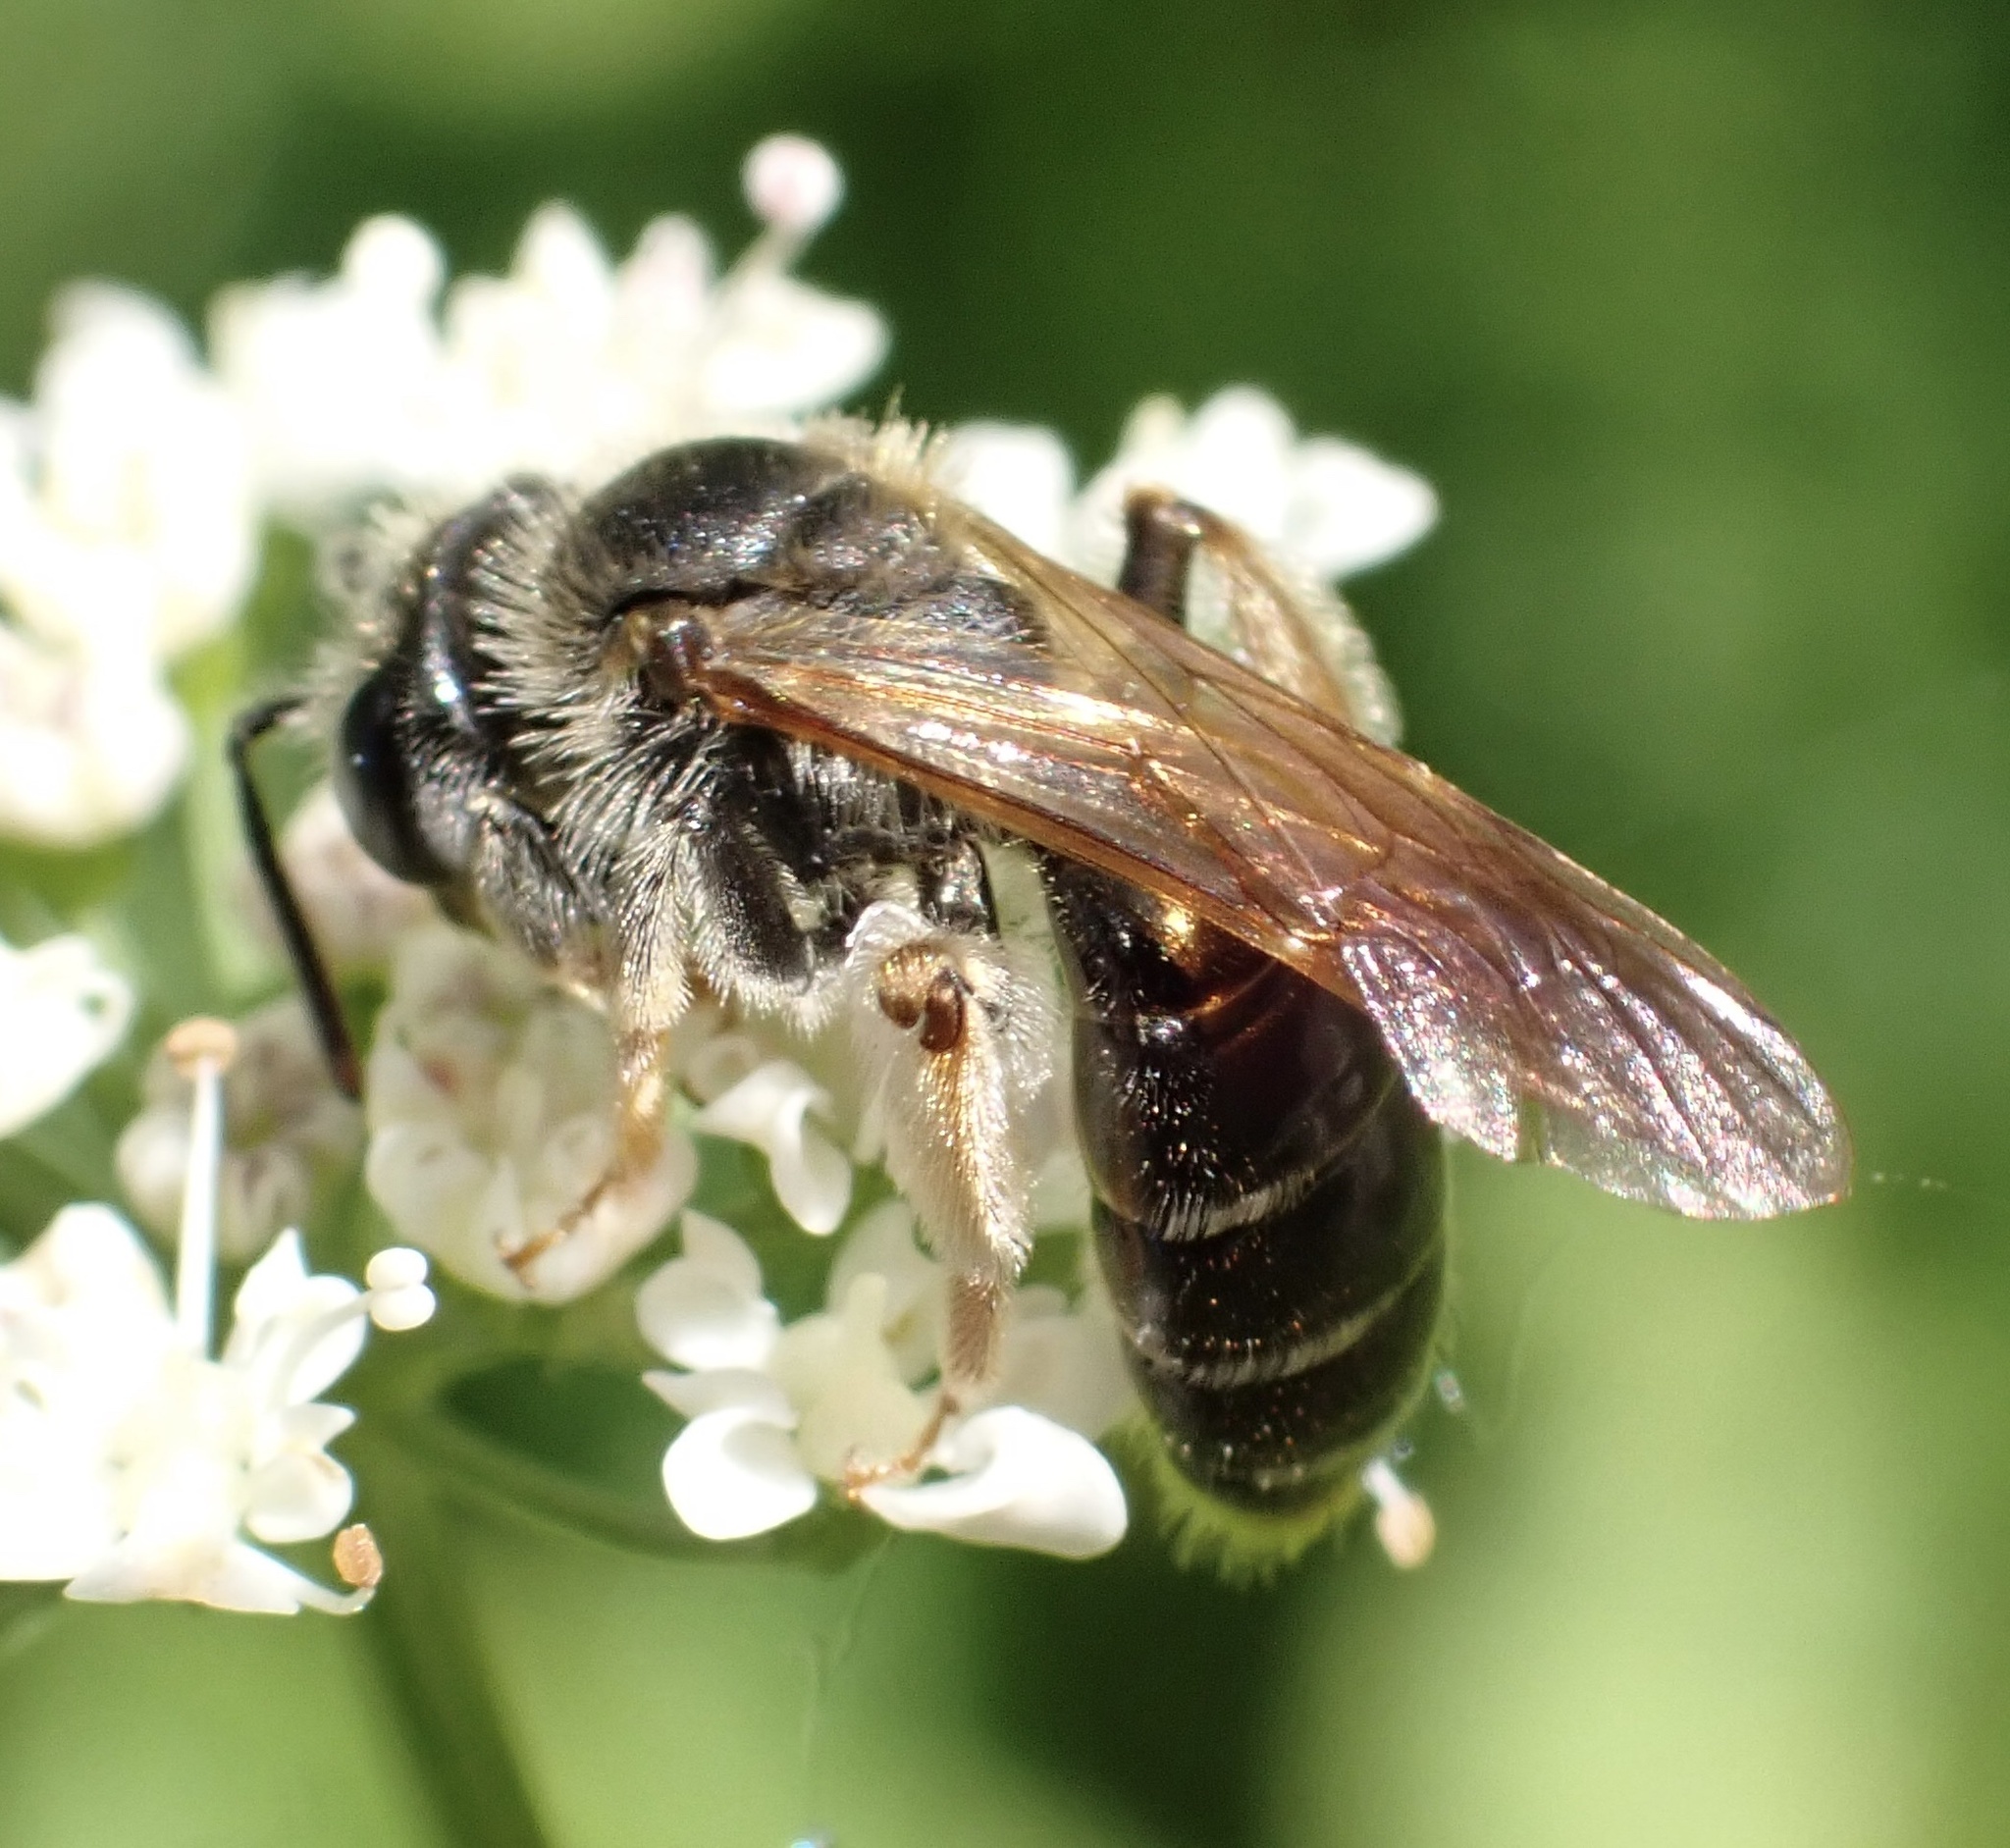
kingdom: Animalia
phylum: Arthropoda
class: Insecta
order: Hymenoptera
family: Andrenidae
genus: Andrena
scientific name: Andrena chrysosceles
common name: Hawthorne mining bee
